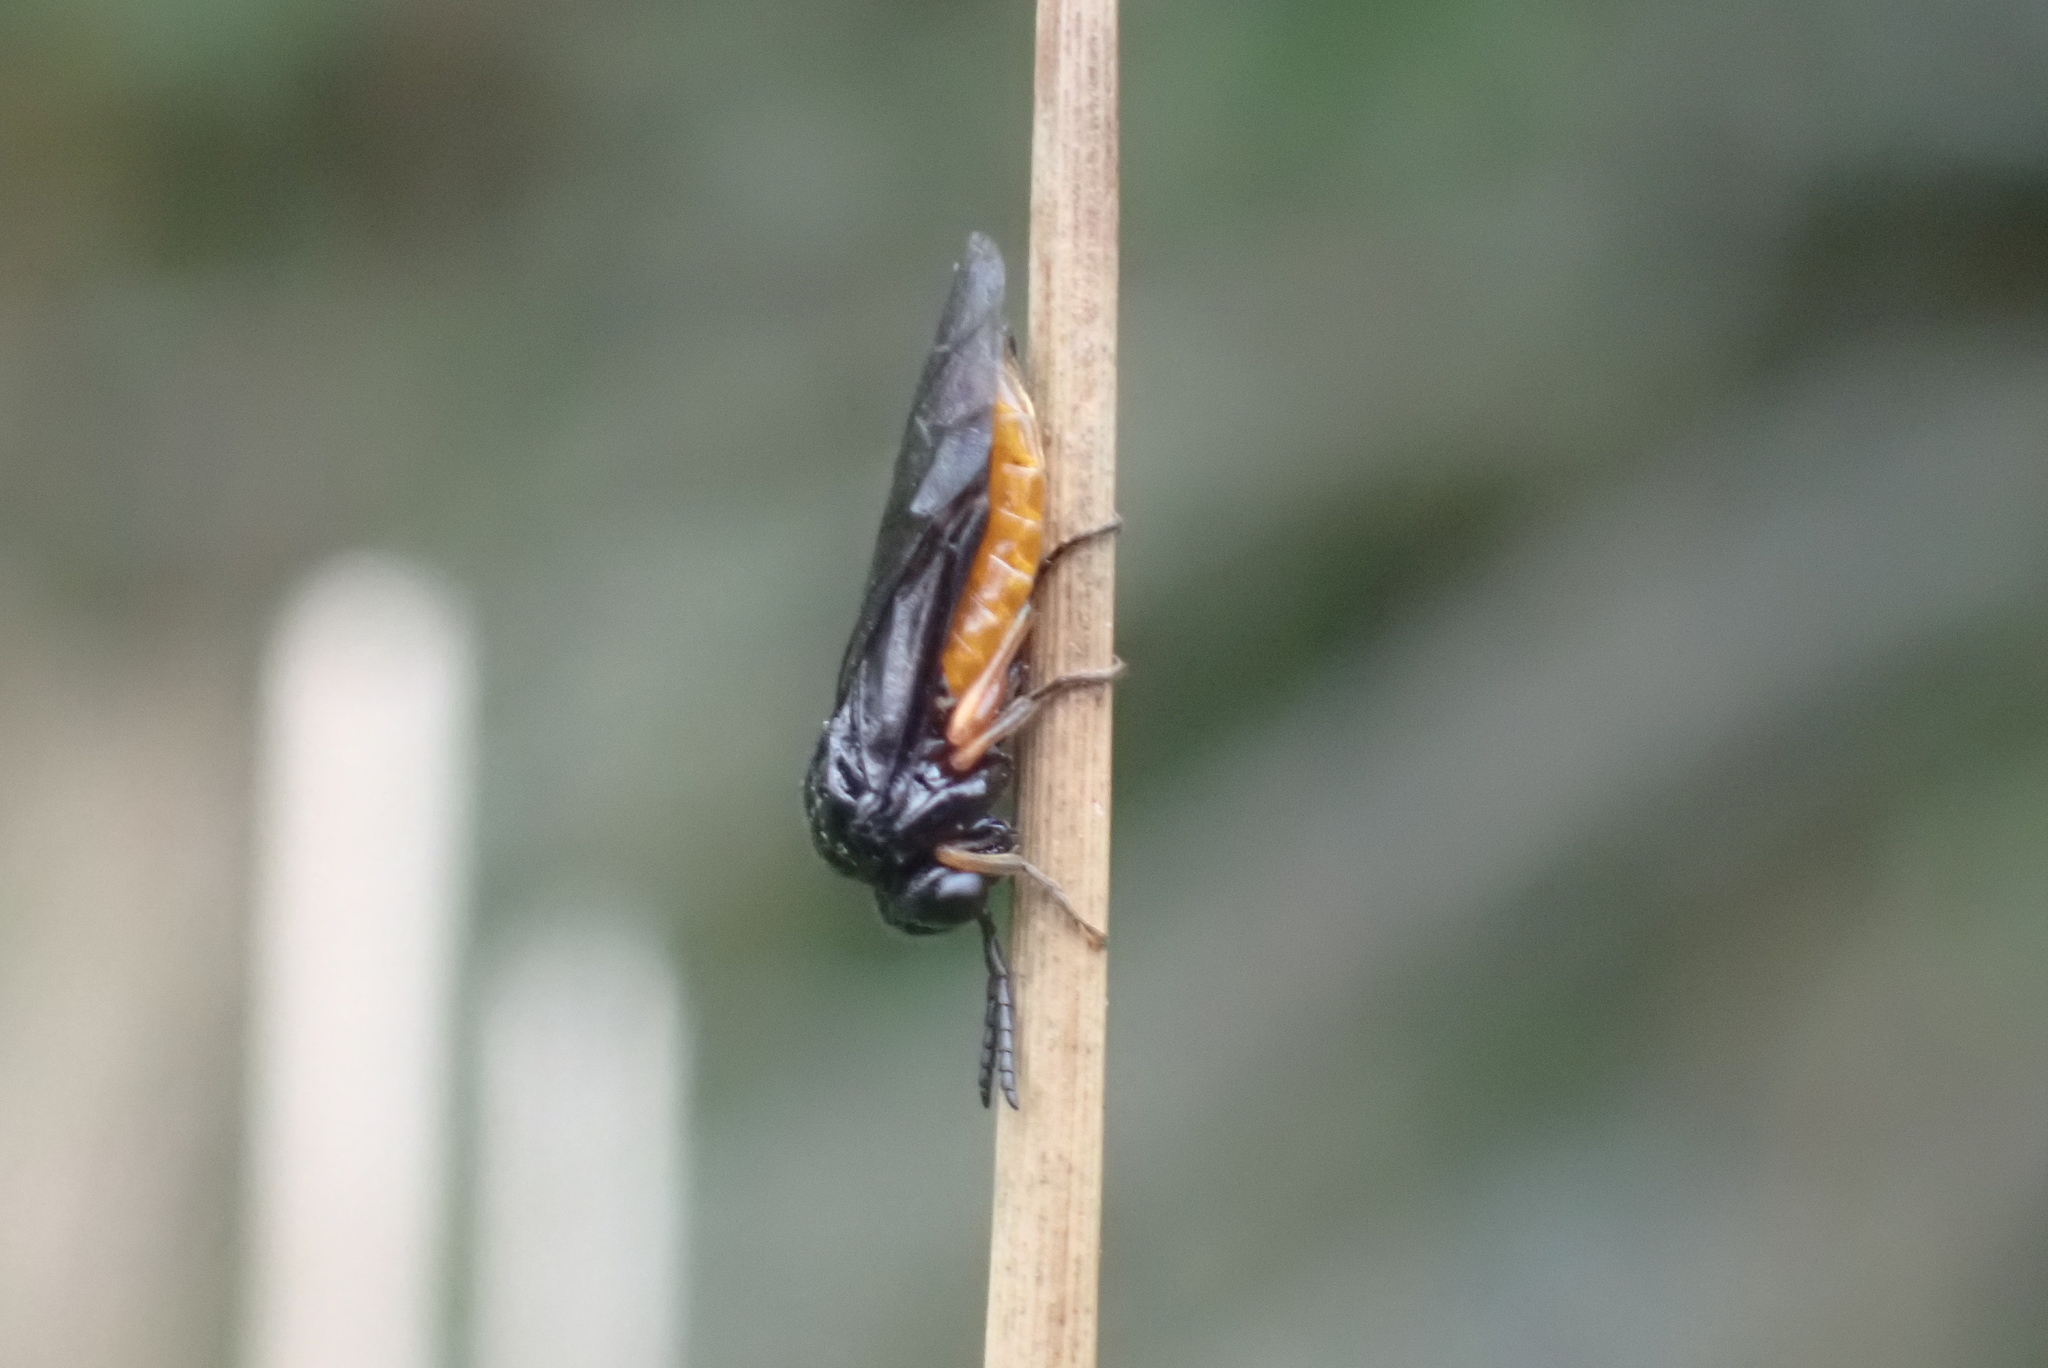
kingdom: Animalia
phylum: Arthropoda
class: Insecta
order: Hymenoptera
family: Tenthredinidae
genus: Eutomostethus
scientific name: Eutomostethus luteiventris
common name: Tenthredid wasp
